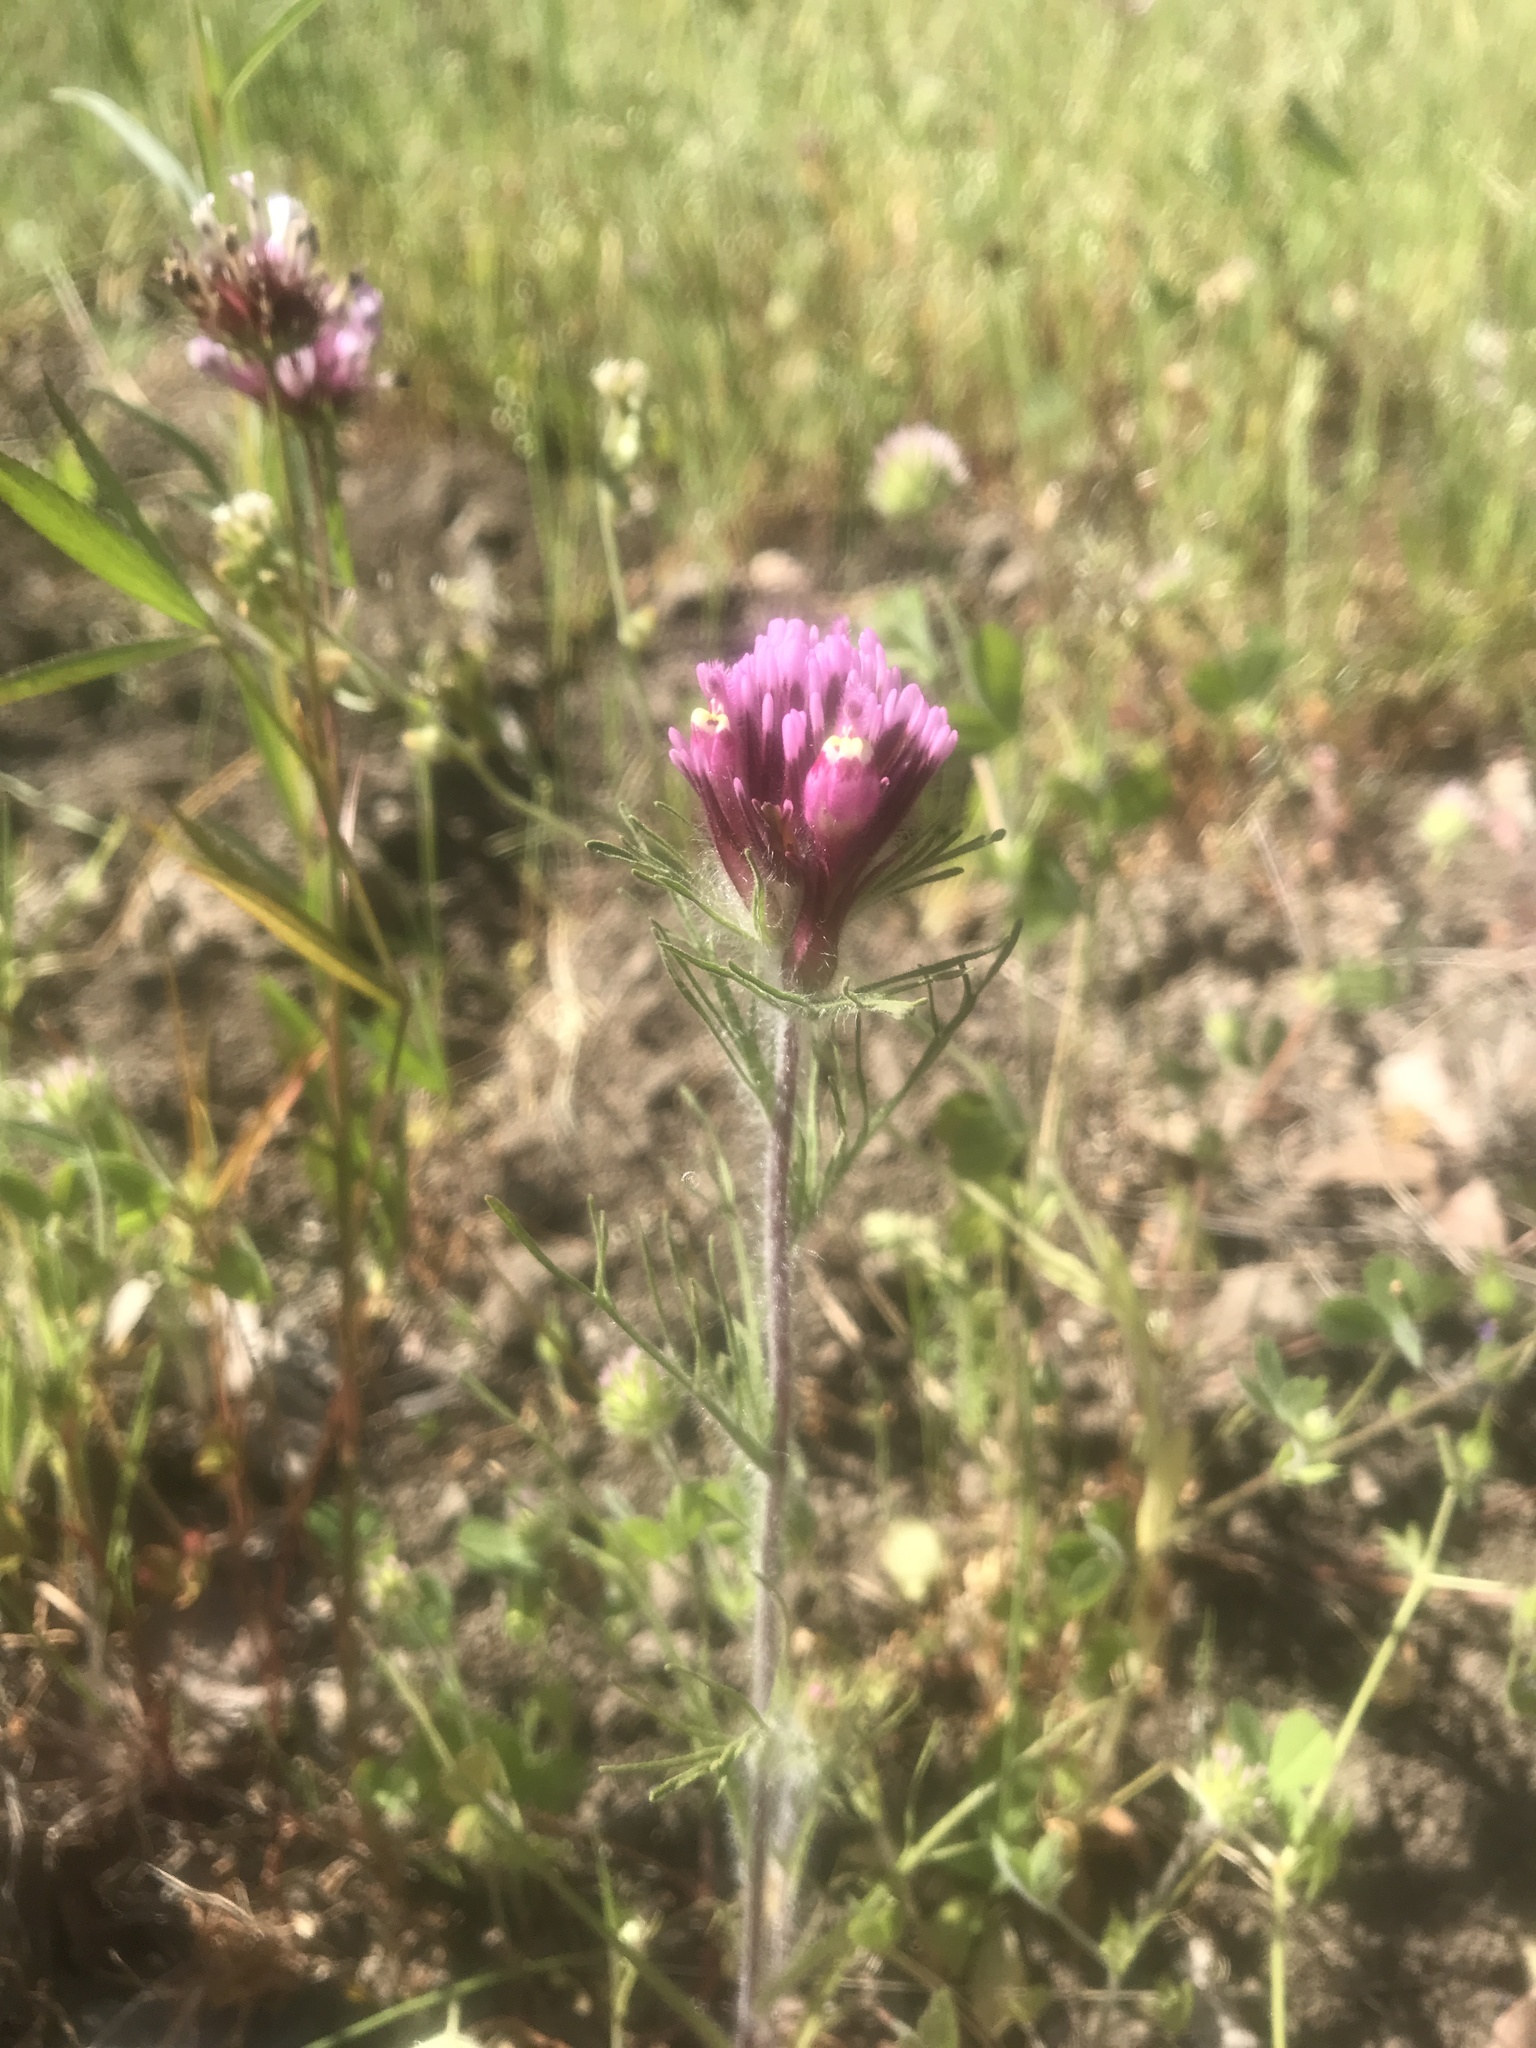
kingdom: Plantae
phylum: Tracheophyta
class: Magnoliopsida
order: Lamiales
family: Orobanchaceae
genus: Castilleja
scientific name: Castilleja exserta
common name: Purple owl-clover
